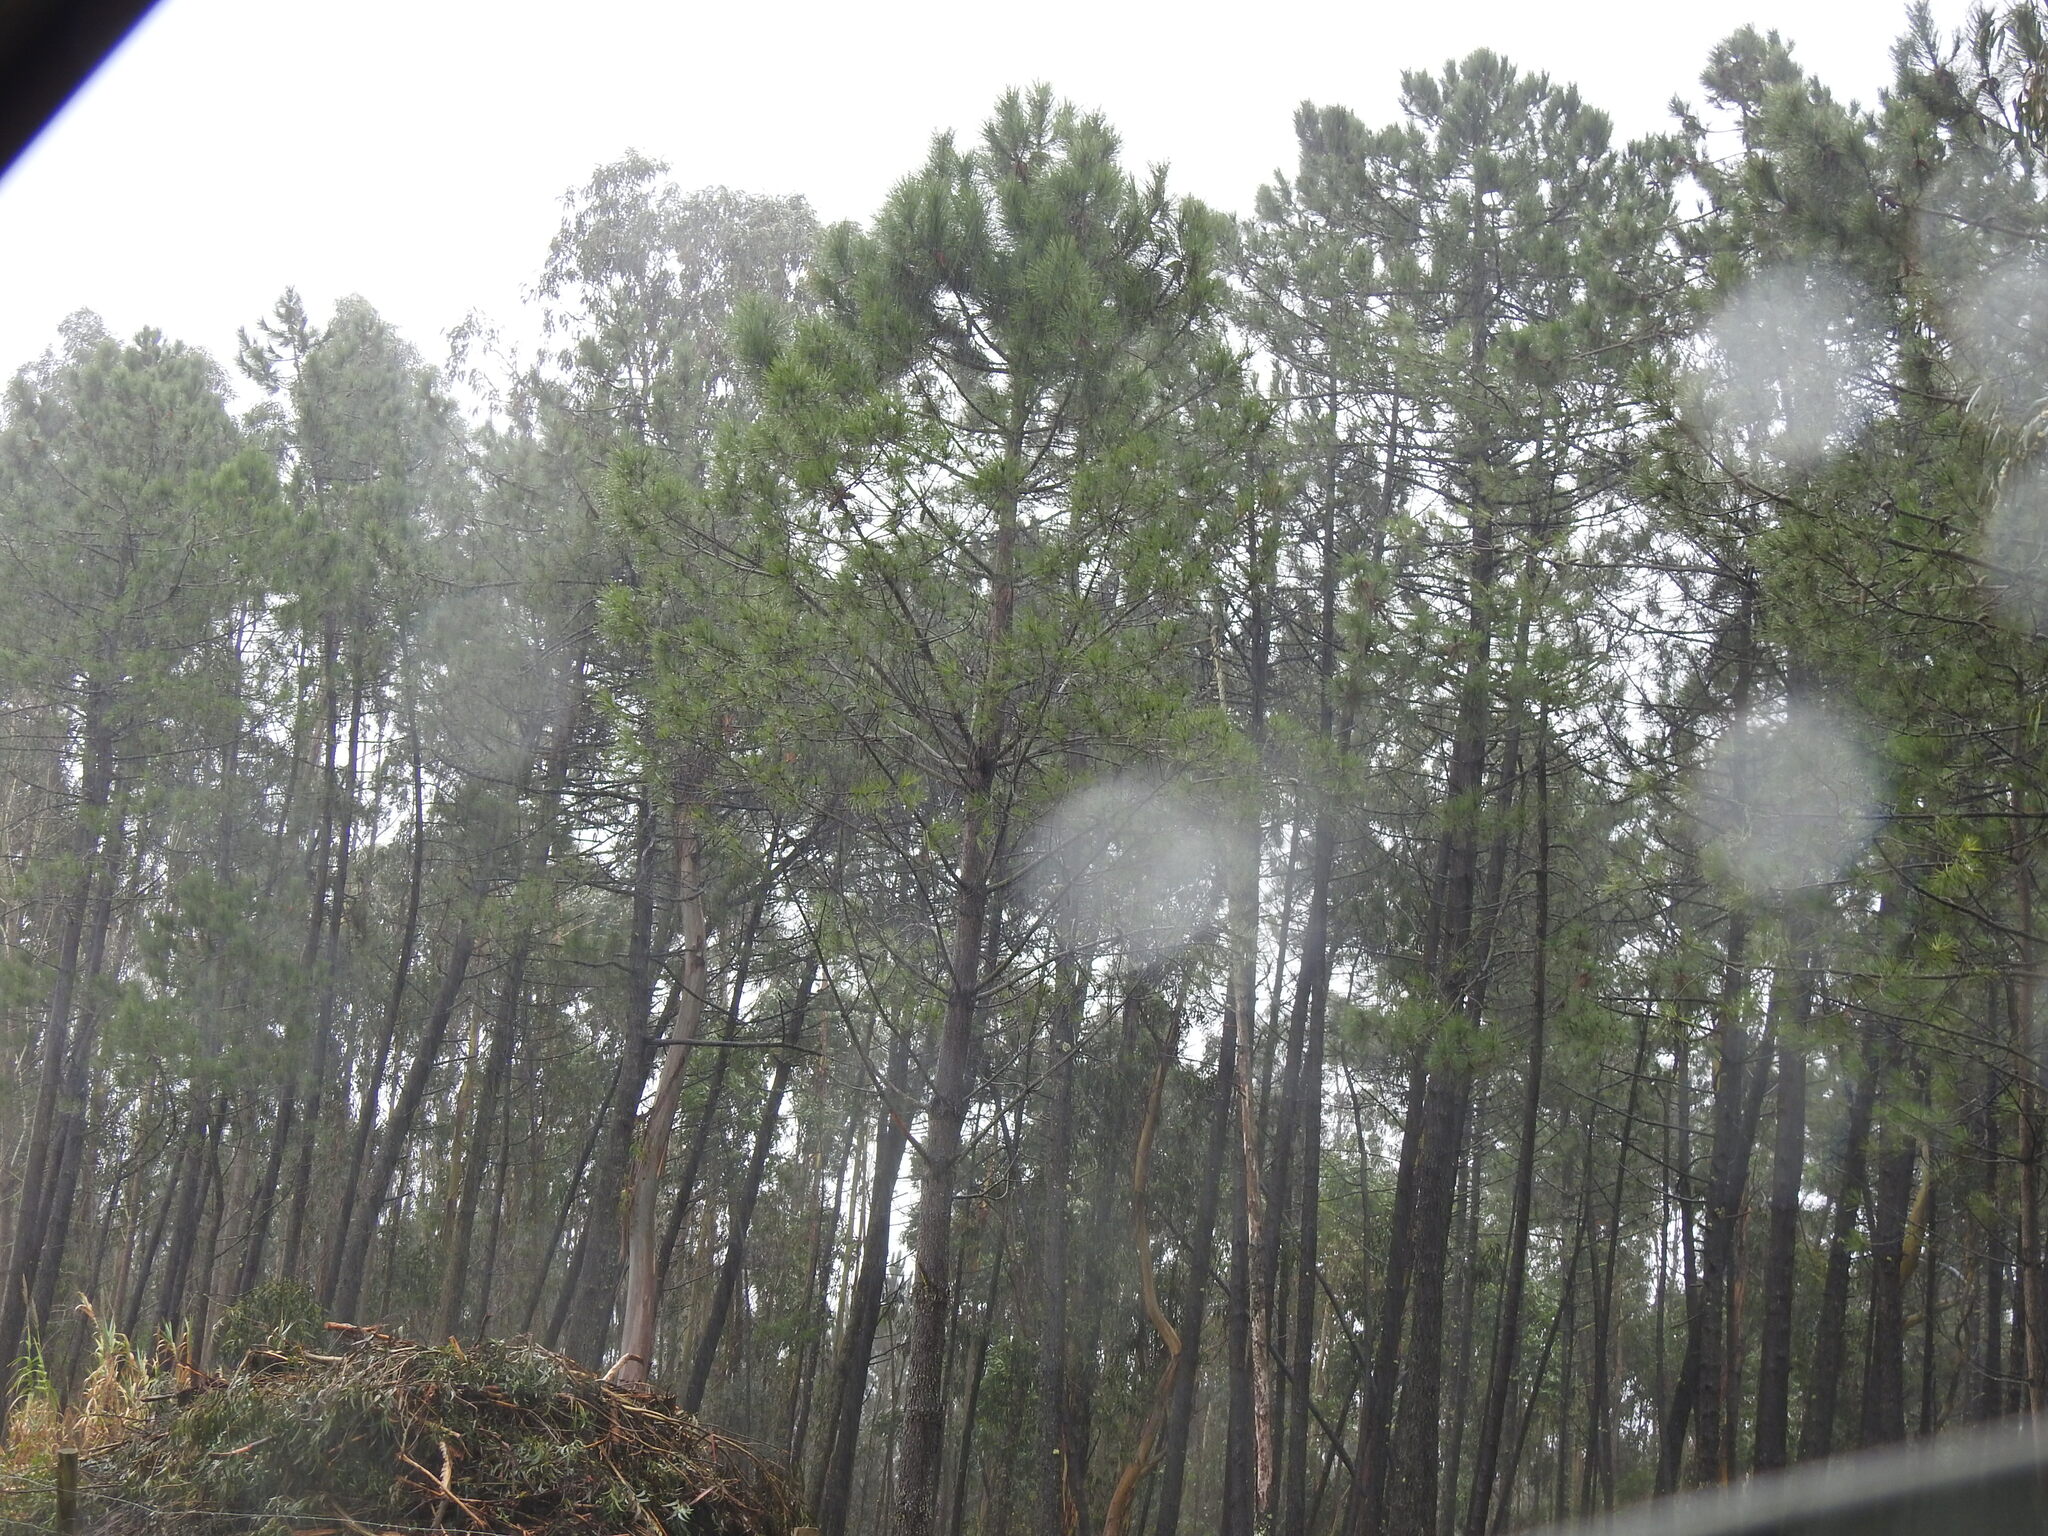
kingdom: Plantae
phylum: Tracheophyta
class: Pinopsida
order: Pinales
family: Pinaceae
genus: Pinus
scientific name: Pinus pinaster
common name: Maritime pine
